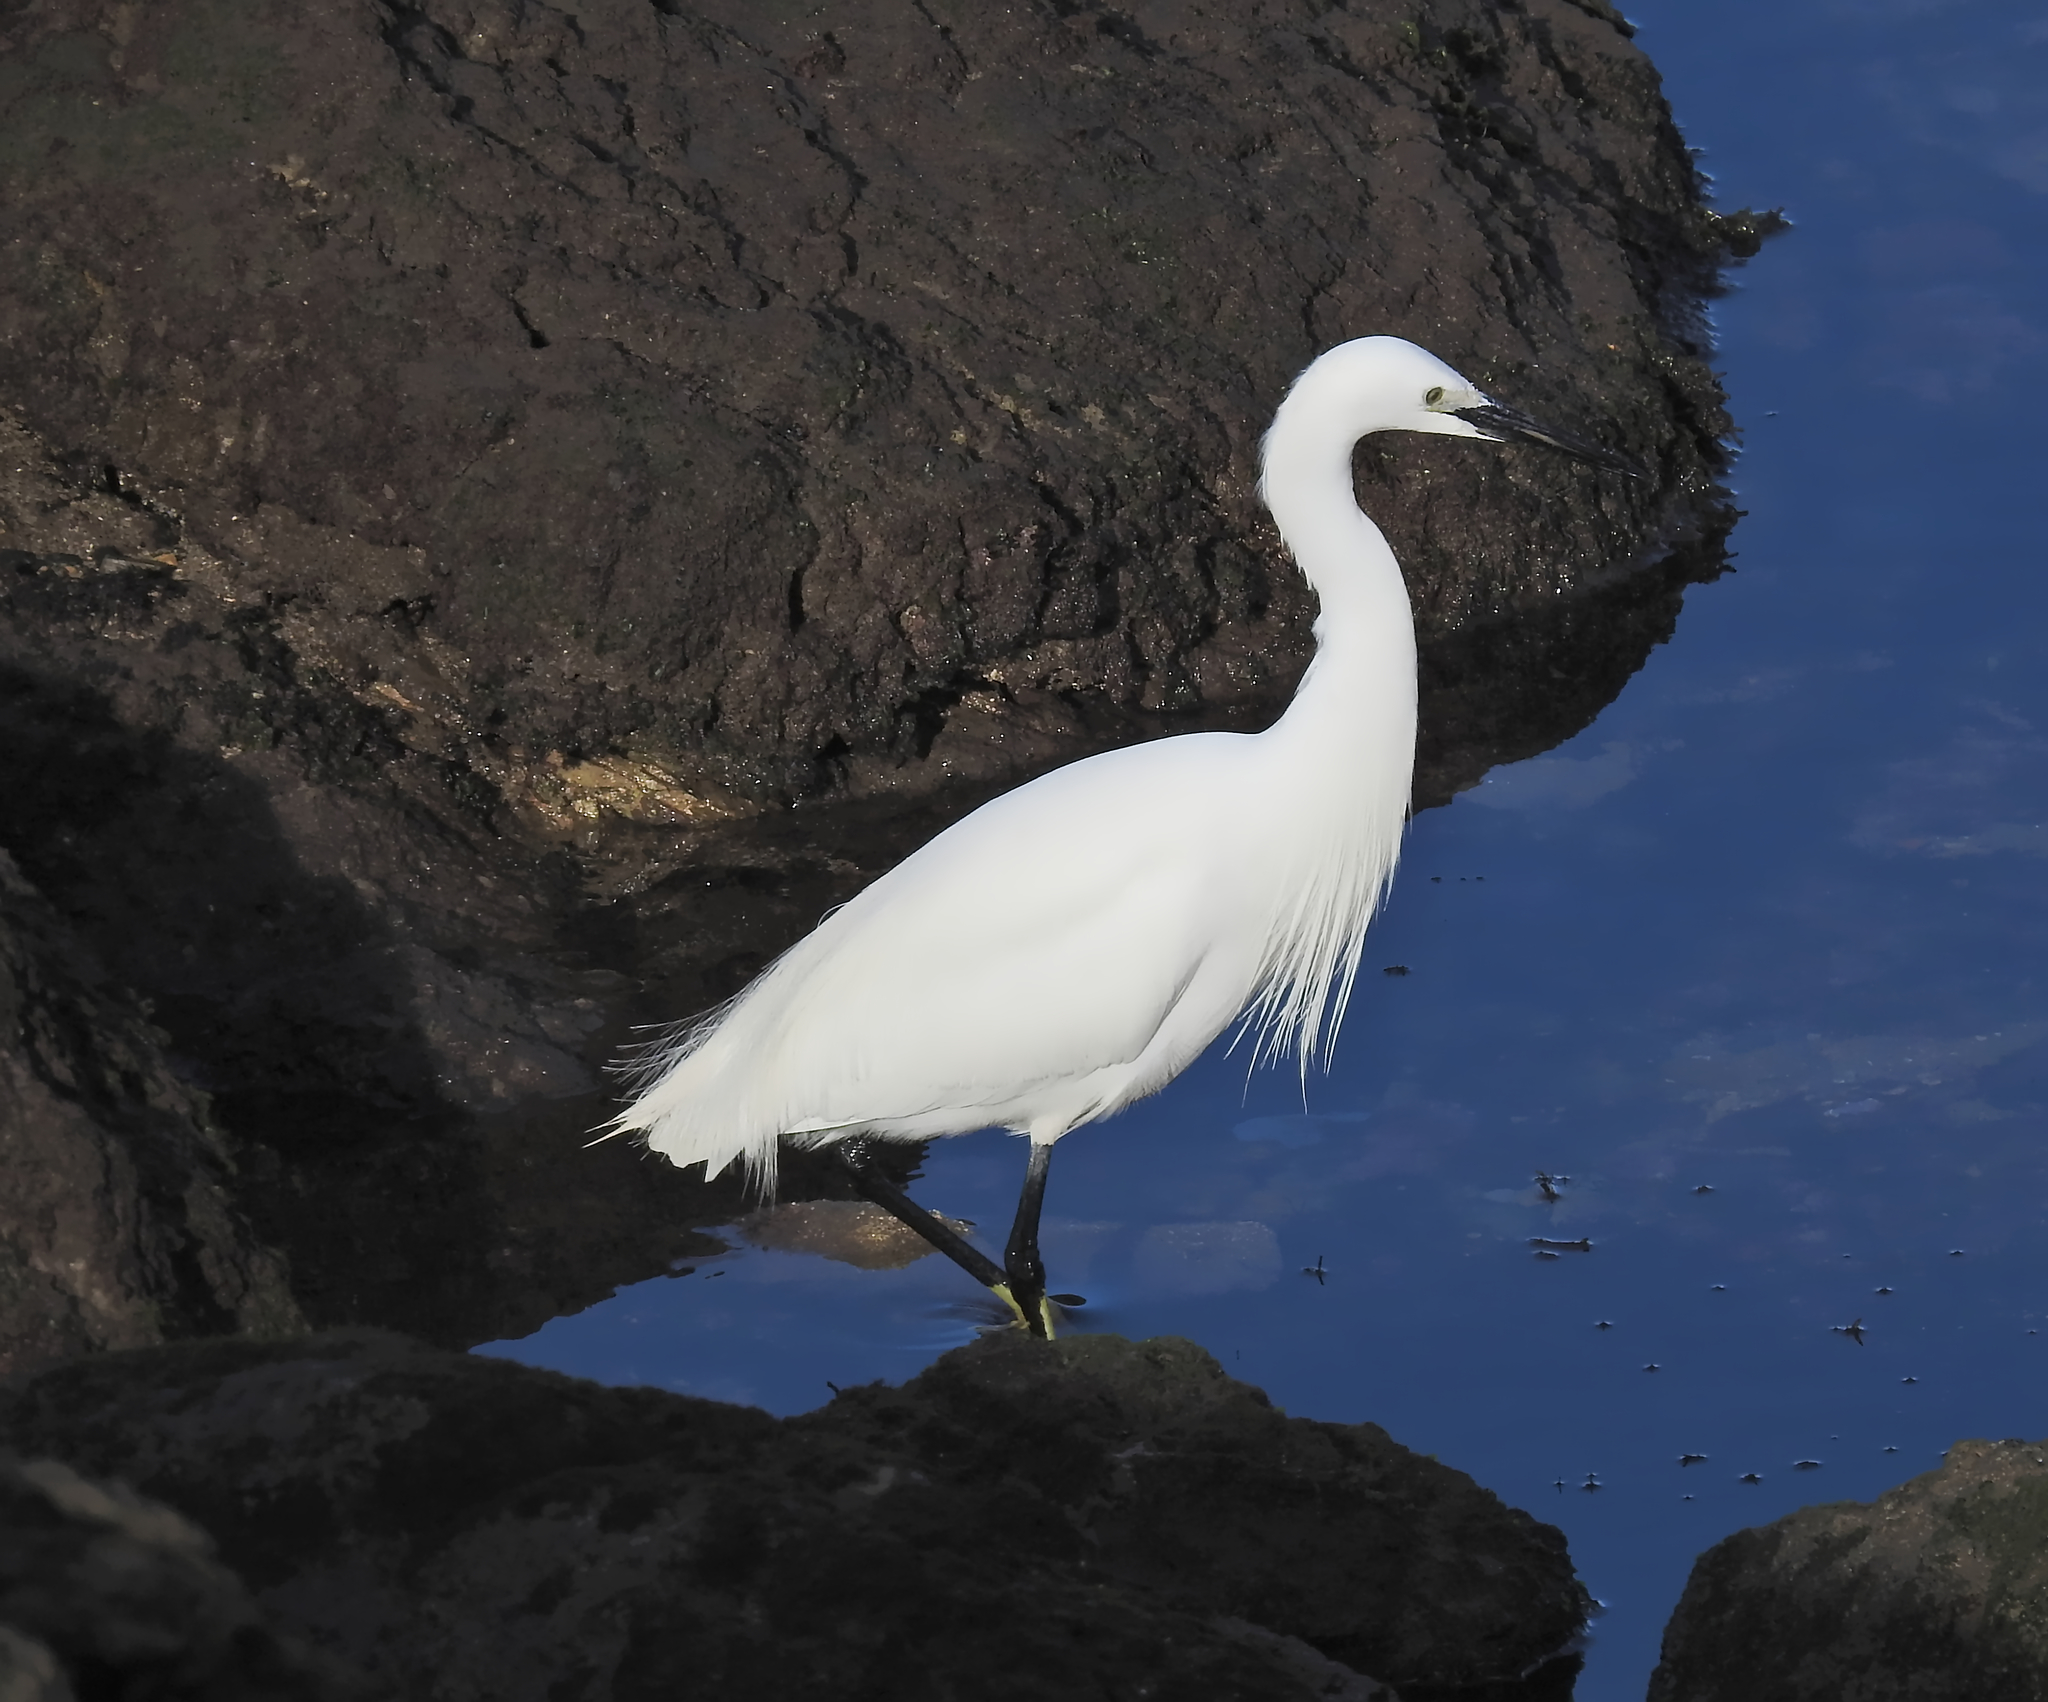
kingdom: Animalia
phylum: Chordata
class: Aves
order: Pelecaniformes
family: Ardeidae
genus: Egretta
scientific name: Egretta garzetta
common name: Little egret
